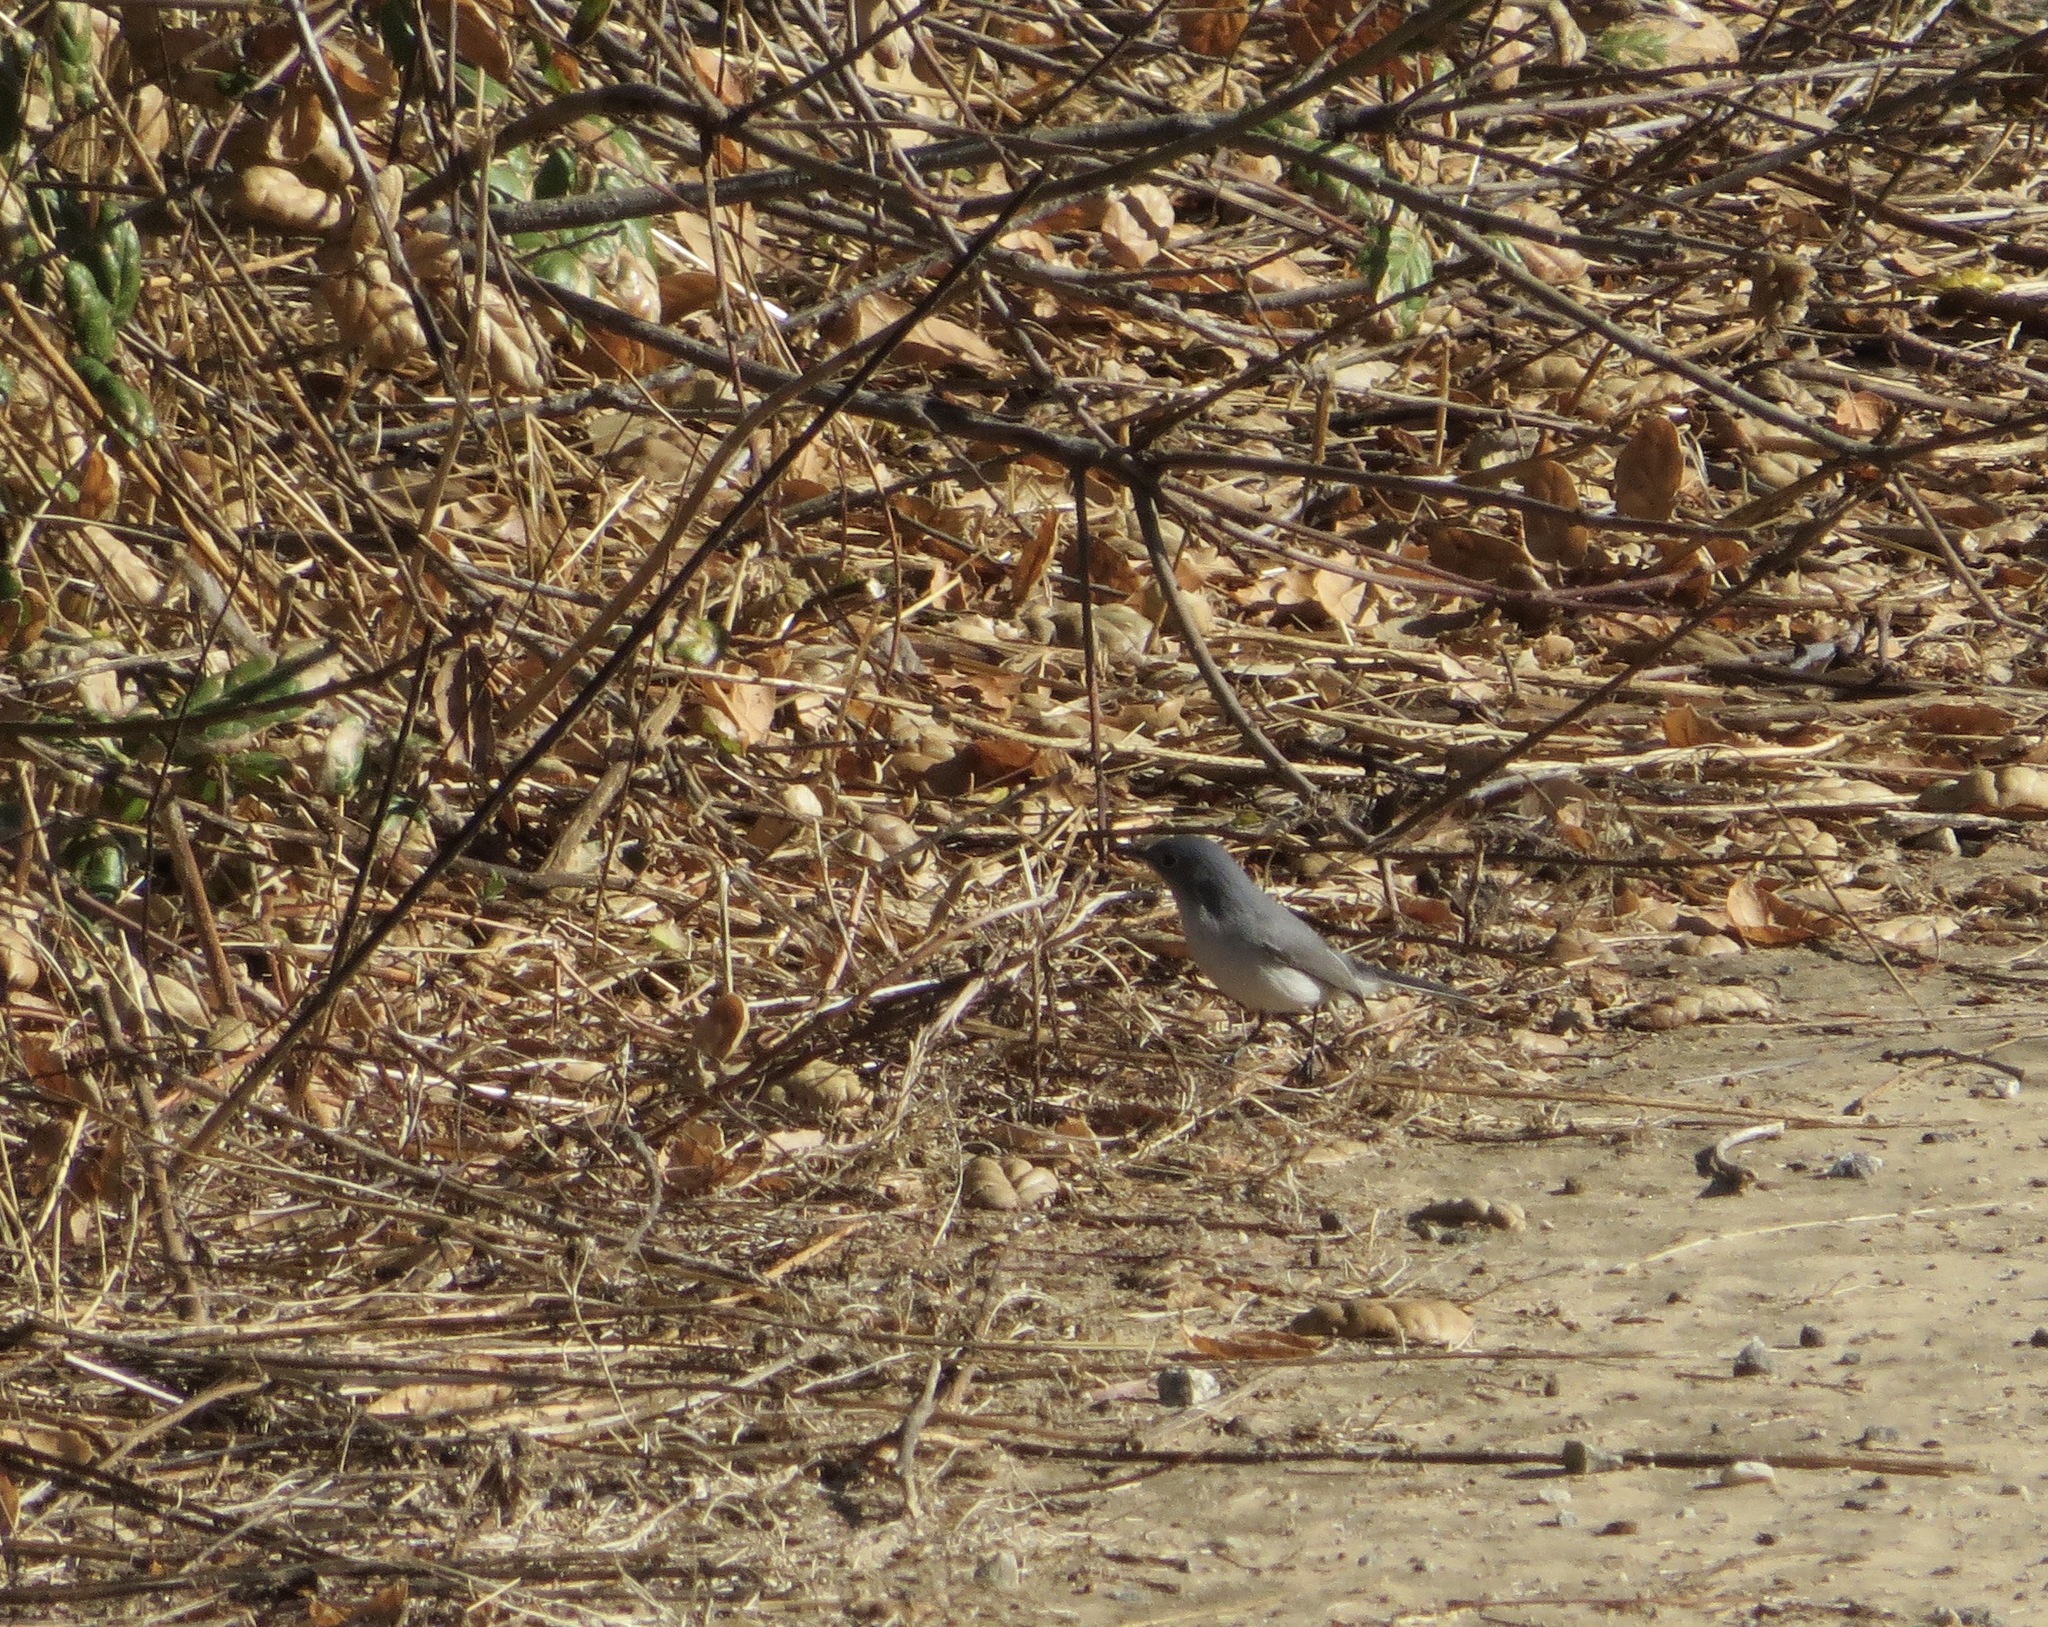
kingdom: Animalia
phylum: Chordata
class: Aves
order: Passeriformes
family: Polioptilidae
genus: Polioptila
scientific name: Polioptila caerulea
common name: Blue-gray gnatcatcher
